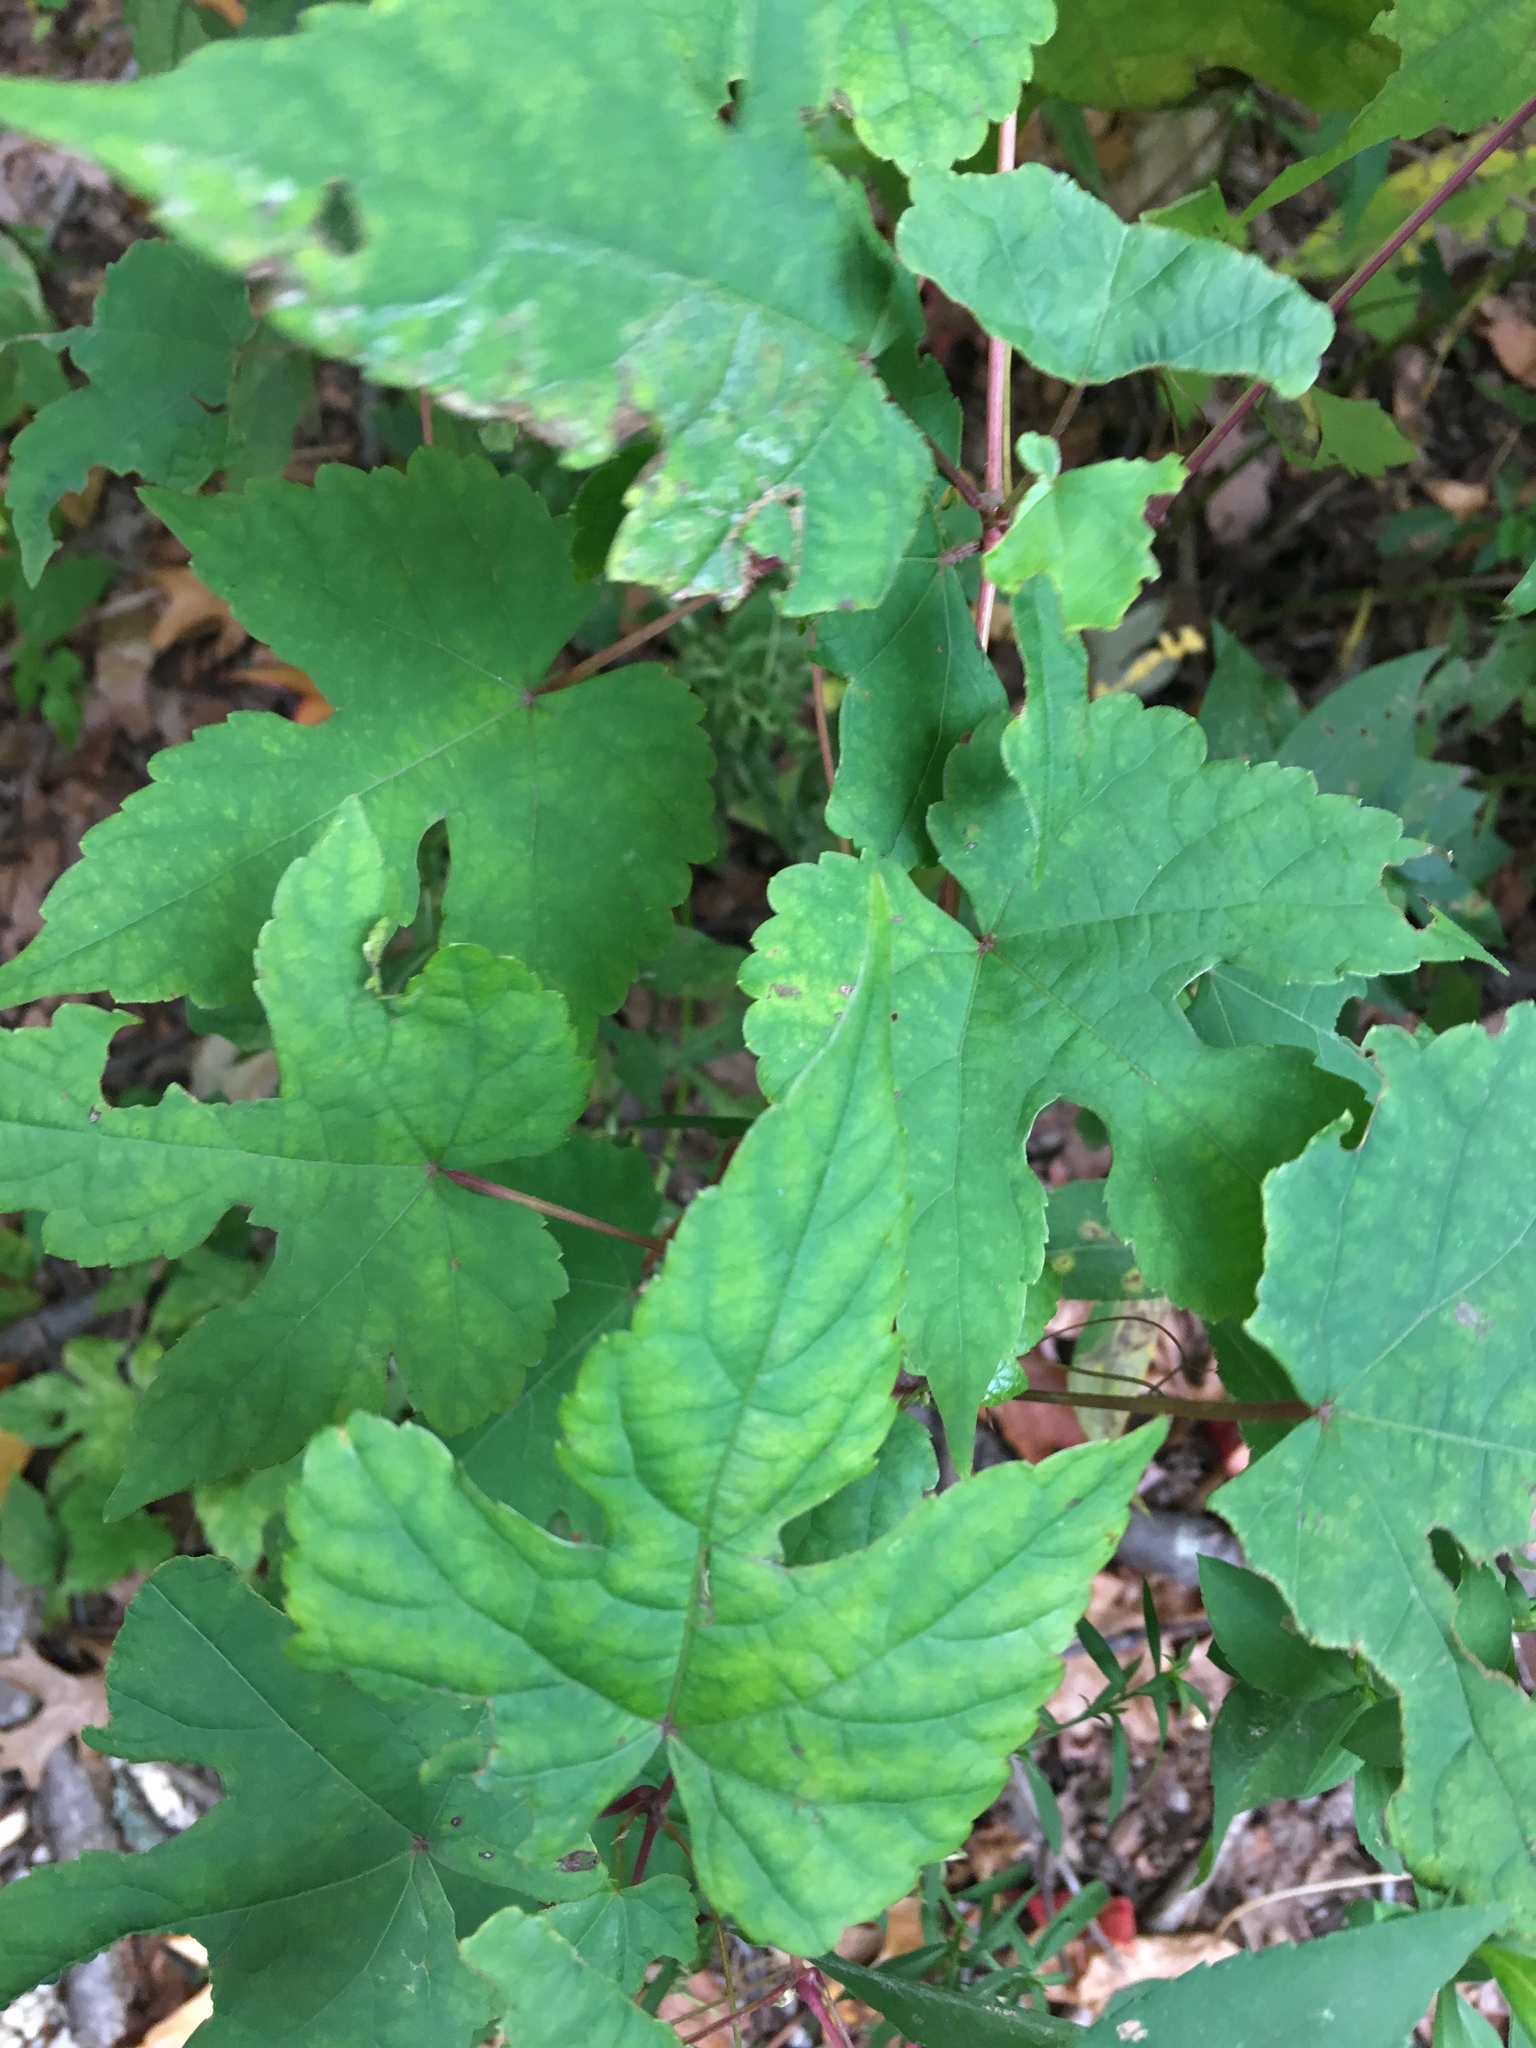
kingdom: Plantae
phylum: Tracheophyta
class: Magnoliopsida
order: Vitales
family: Vitaceae
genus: Ampelopsis
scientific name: Ampelopsis glandulosa
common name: Amur peppervine
